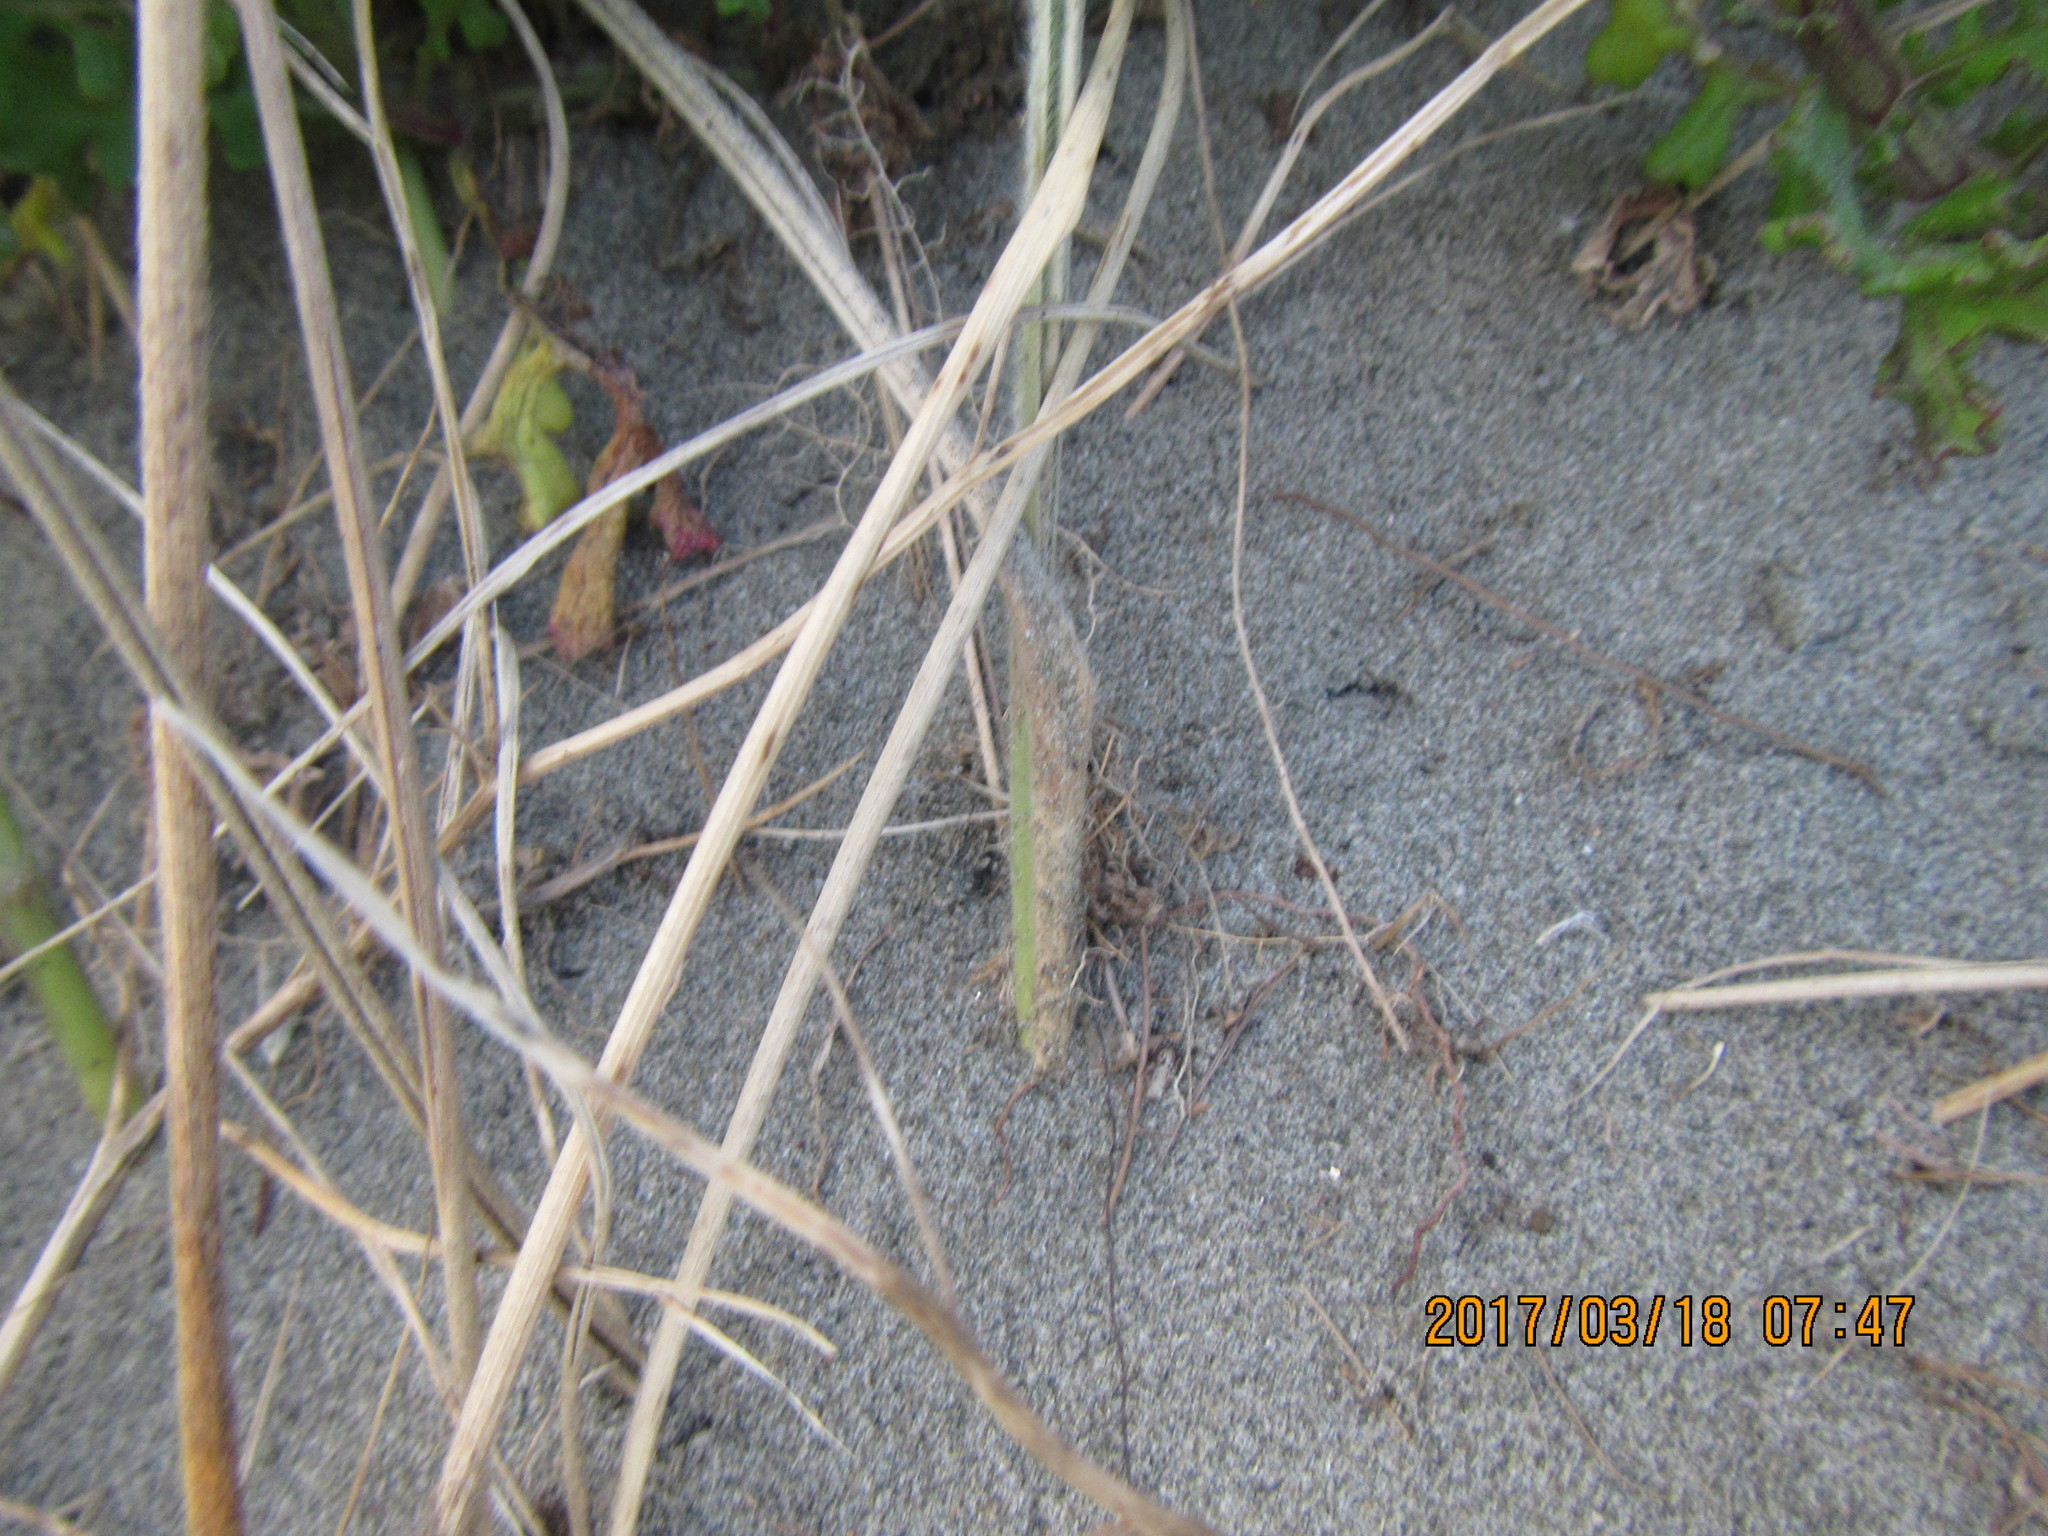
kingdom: Animalia
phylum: Arthropoda
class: Arachnida
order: Araneae
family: Lycosidae
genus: Anoteropsis
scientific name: Anoteropsis litoralis
